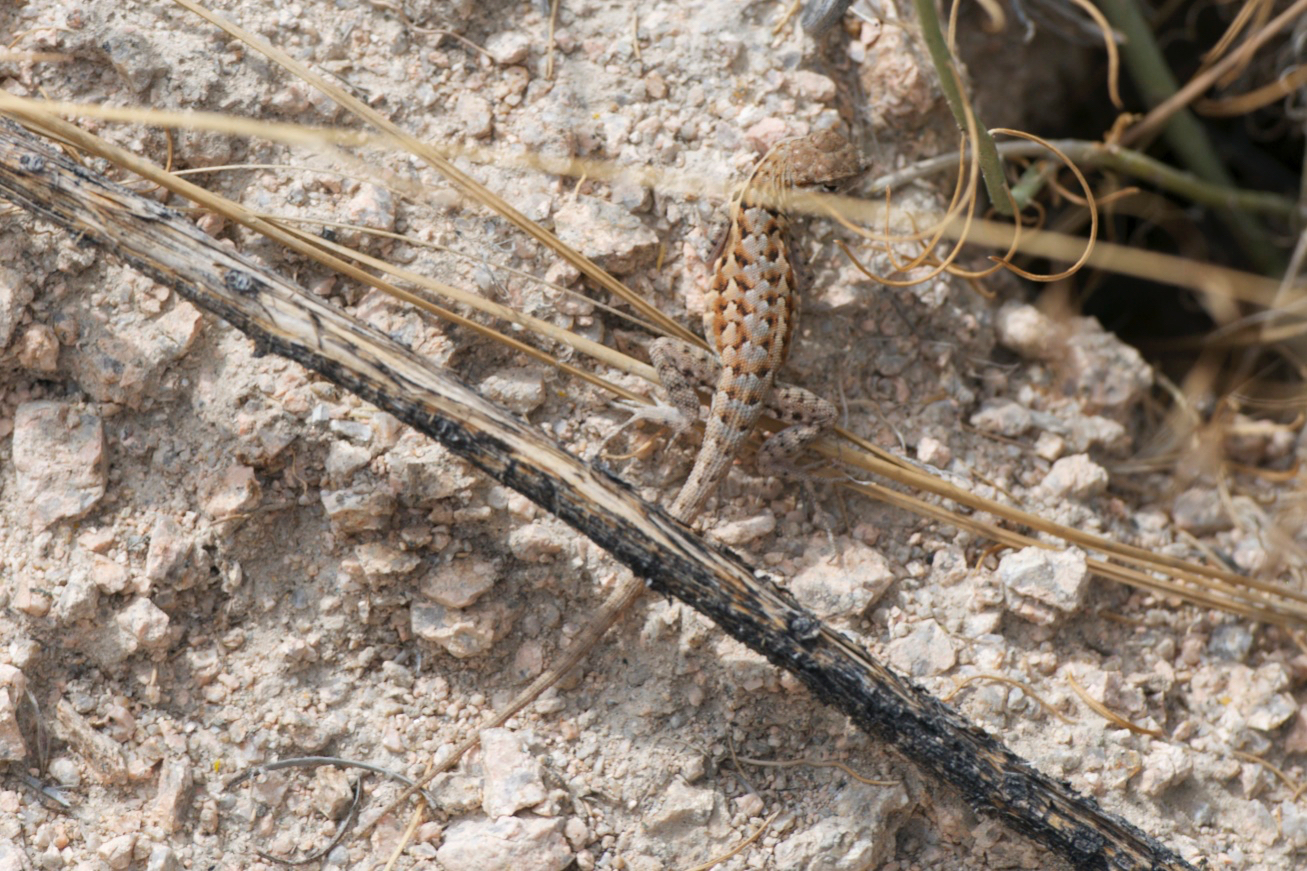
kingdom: Animalia
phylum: Chordata
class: Squamata
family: Phrynosomatidae
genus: Uta
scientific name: Uta stansburiana
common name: Side-blotched lizard
